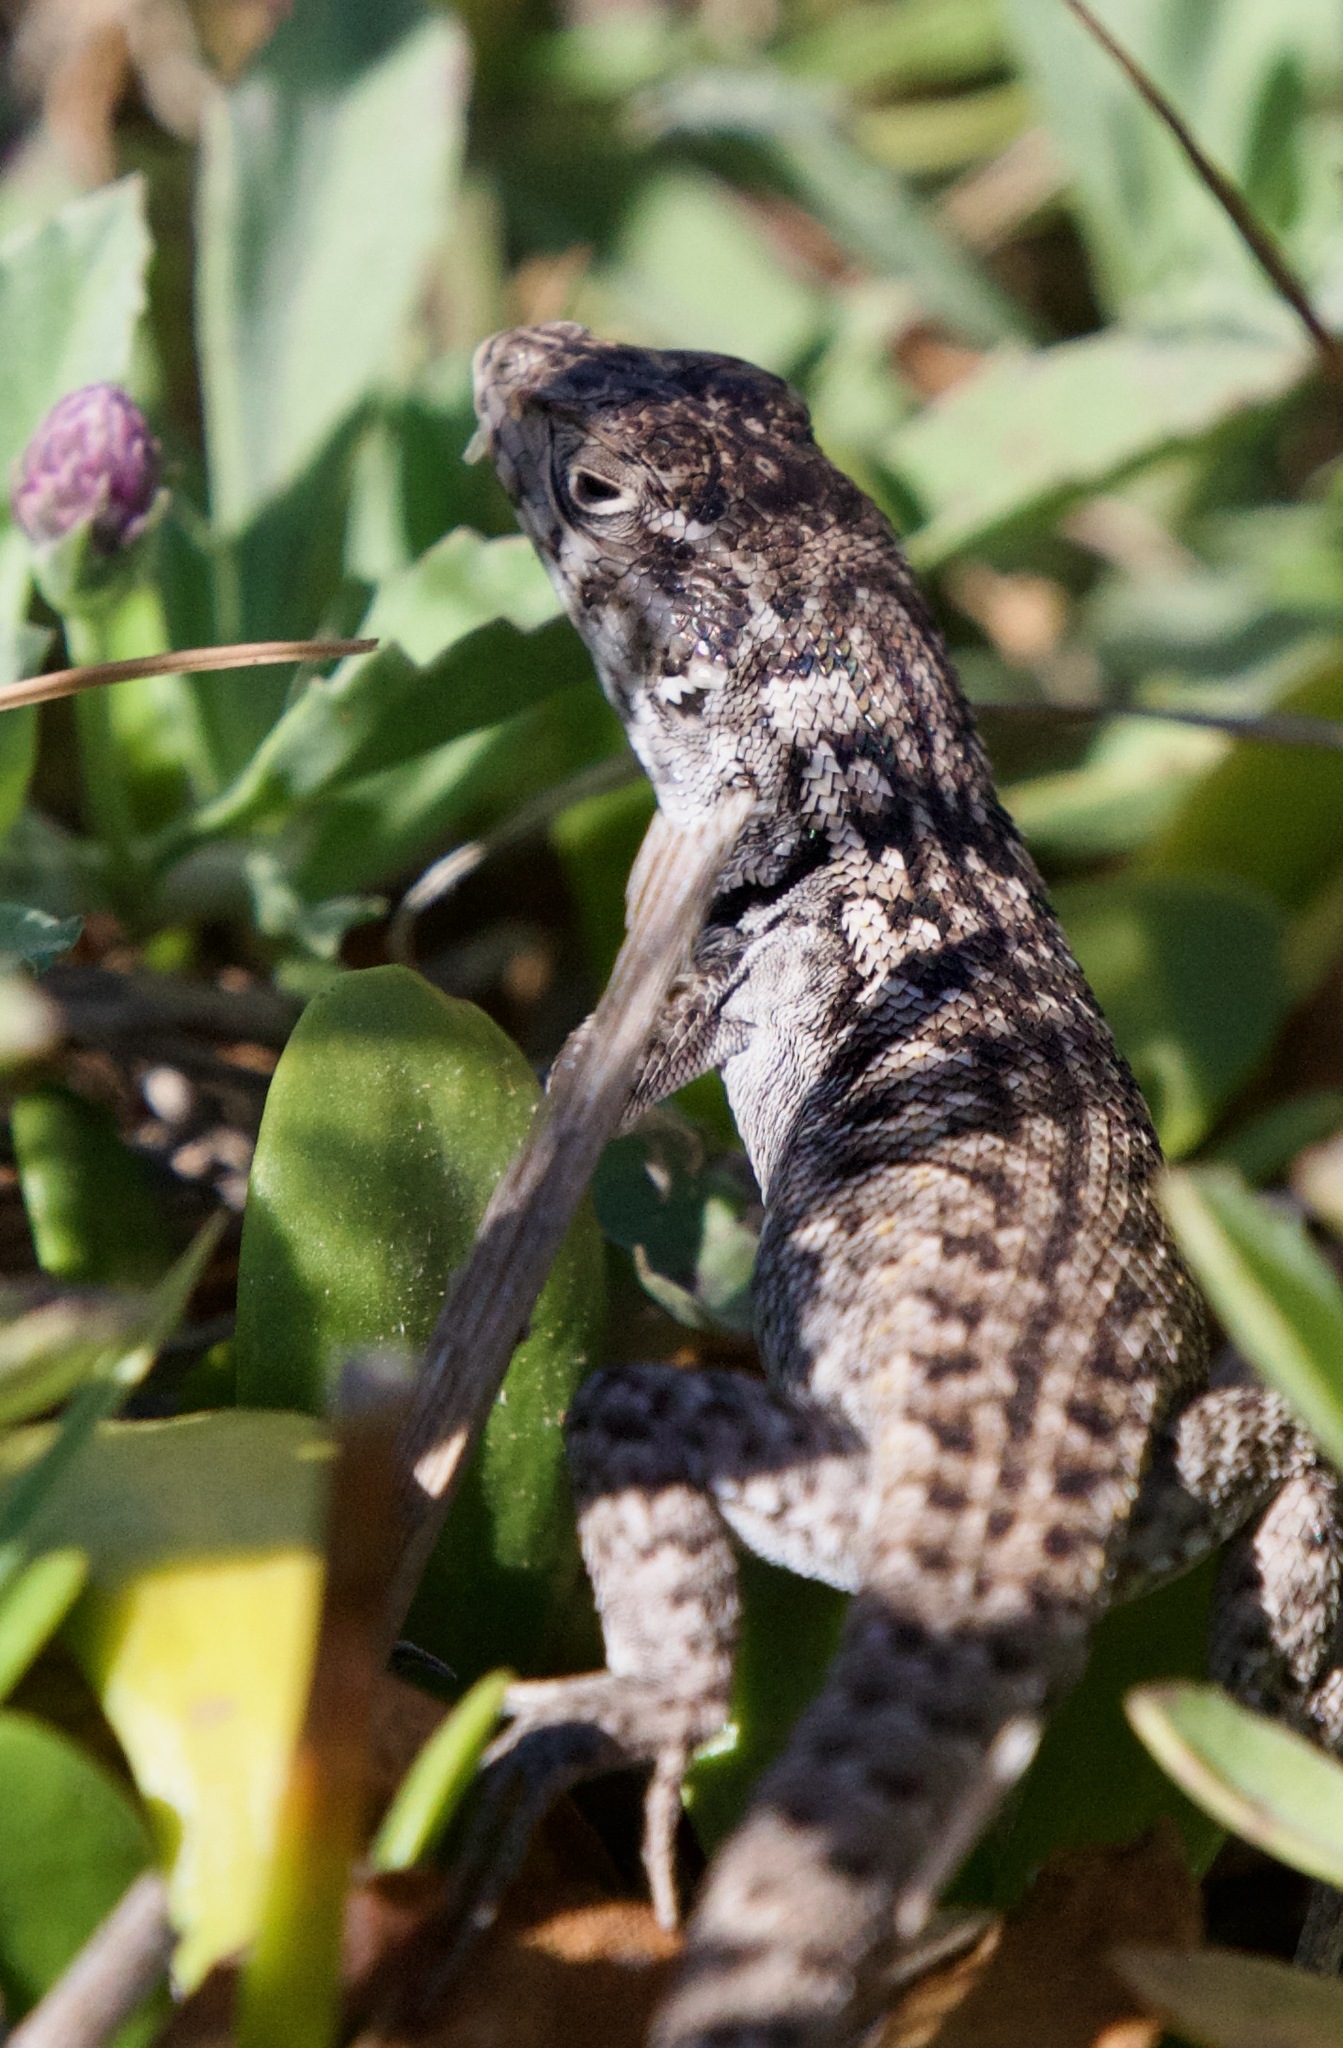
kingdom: Animalia
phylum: Chordata
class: Squamata
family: Liolaemidae
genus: Liolaemus
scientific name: Liolaemus zapallarensis
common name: Zapallaren tree iguana
